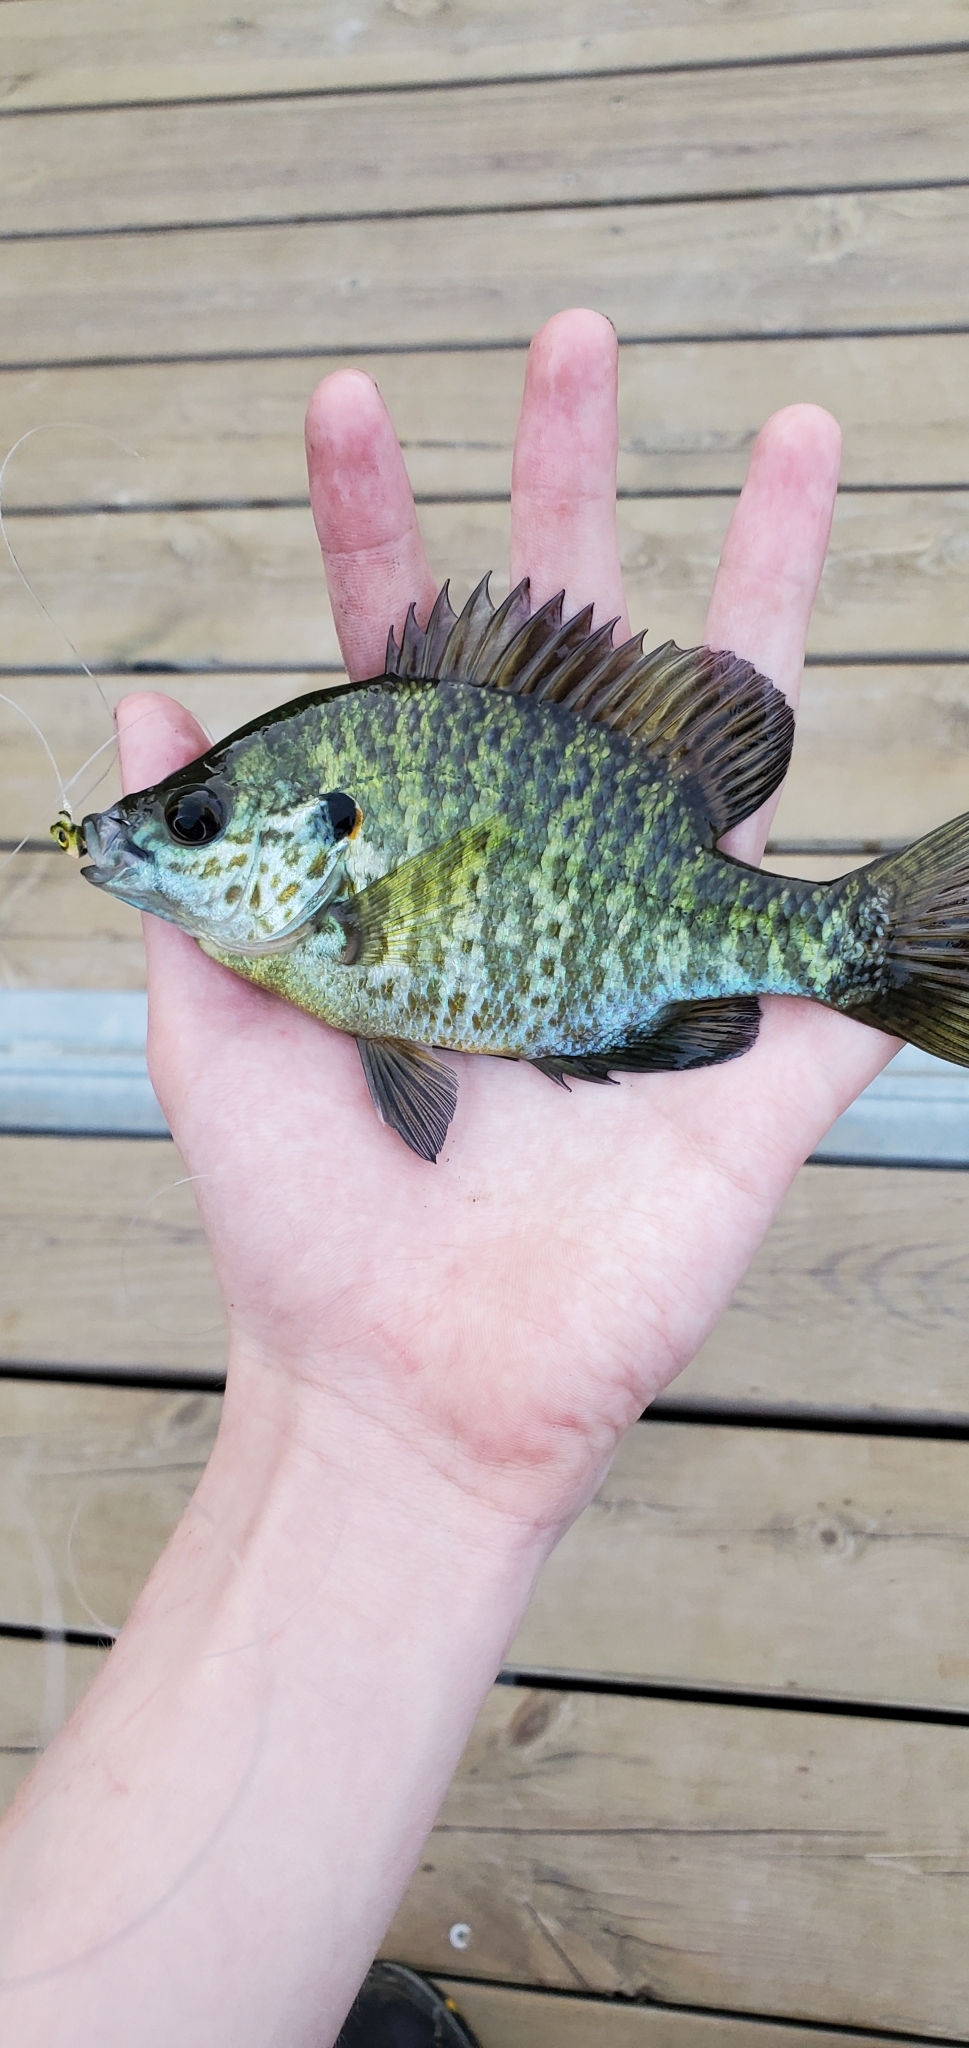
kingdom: Animalia
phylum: Chordata
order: Perciformes
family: Centrarchidae
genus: Lepomis
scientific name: Lepomis microlophus
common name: Redear sunfish
